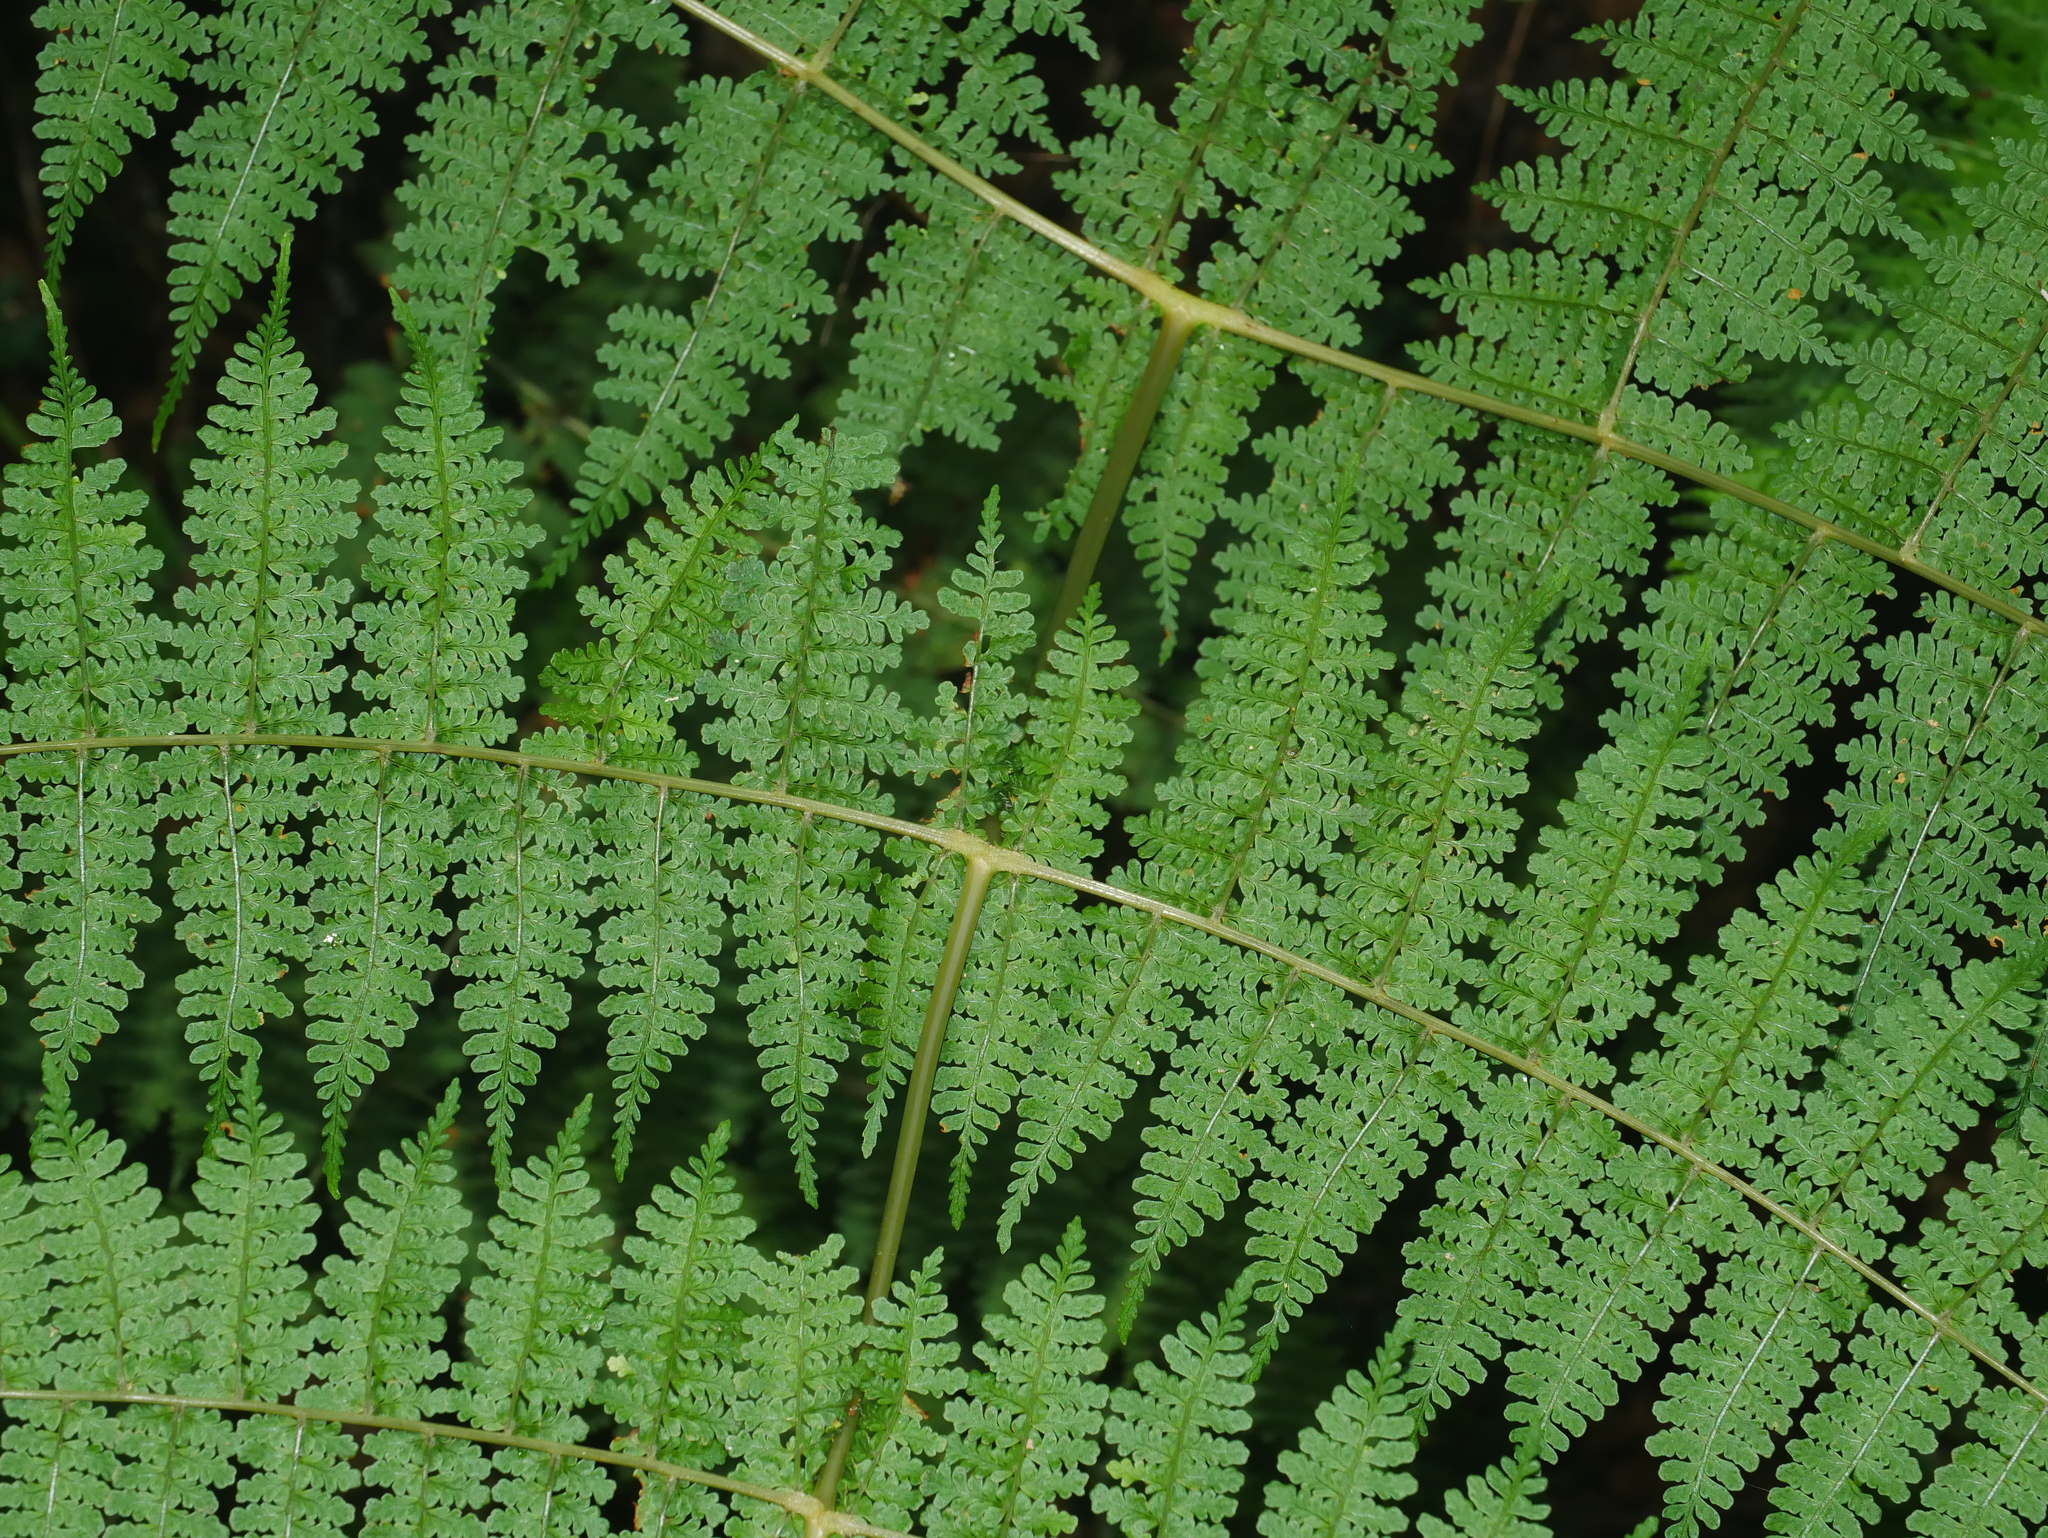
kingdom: Plantae
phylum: Tracheophyta
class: Polypodiopsida
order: Polypodiales
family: Dryopteridaceae
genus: Dryopteris
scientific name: Dryopteris wuzhaohongii
